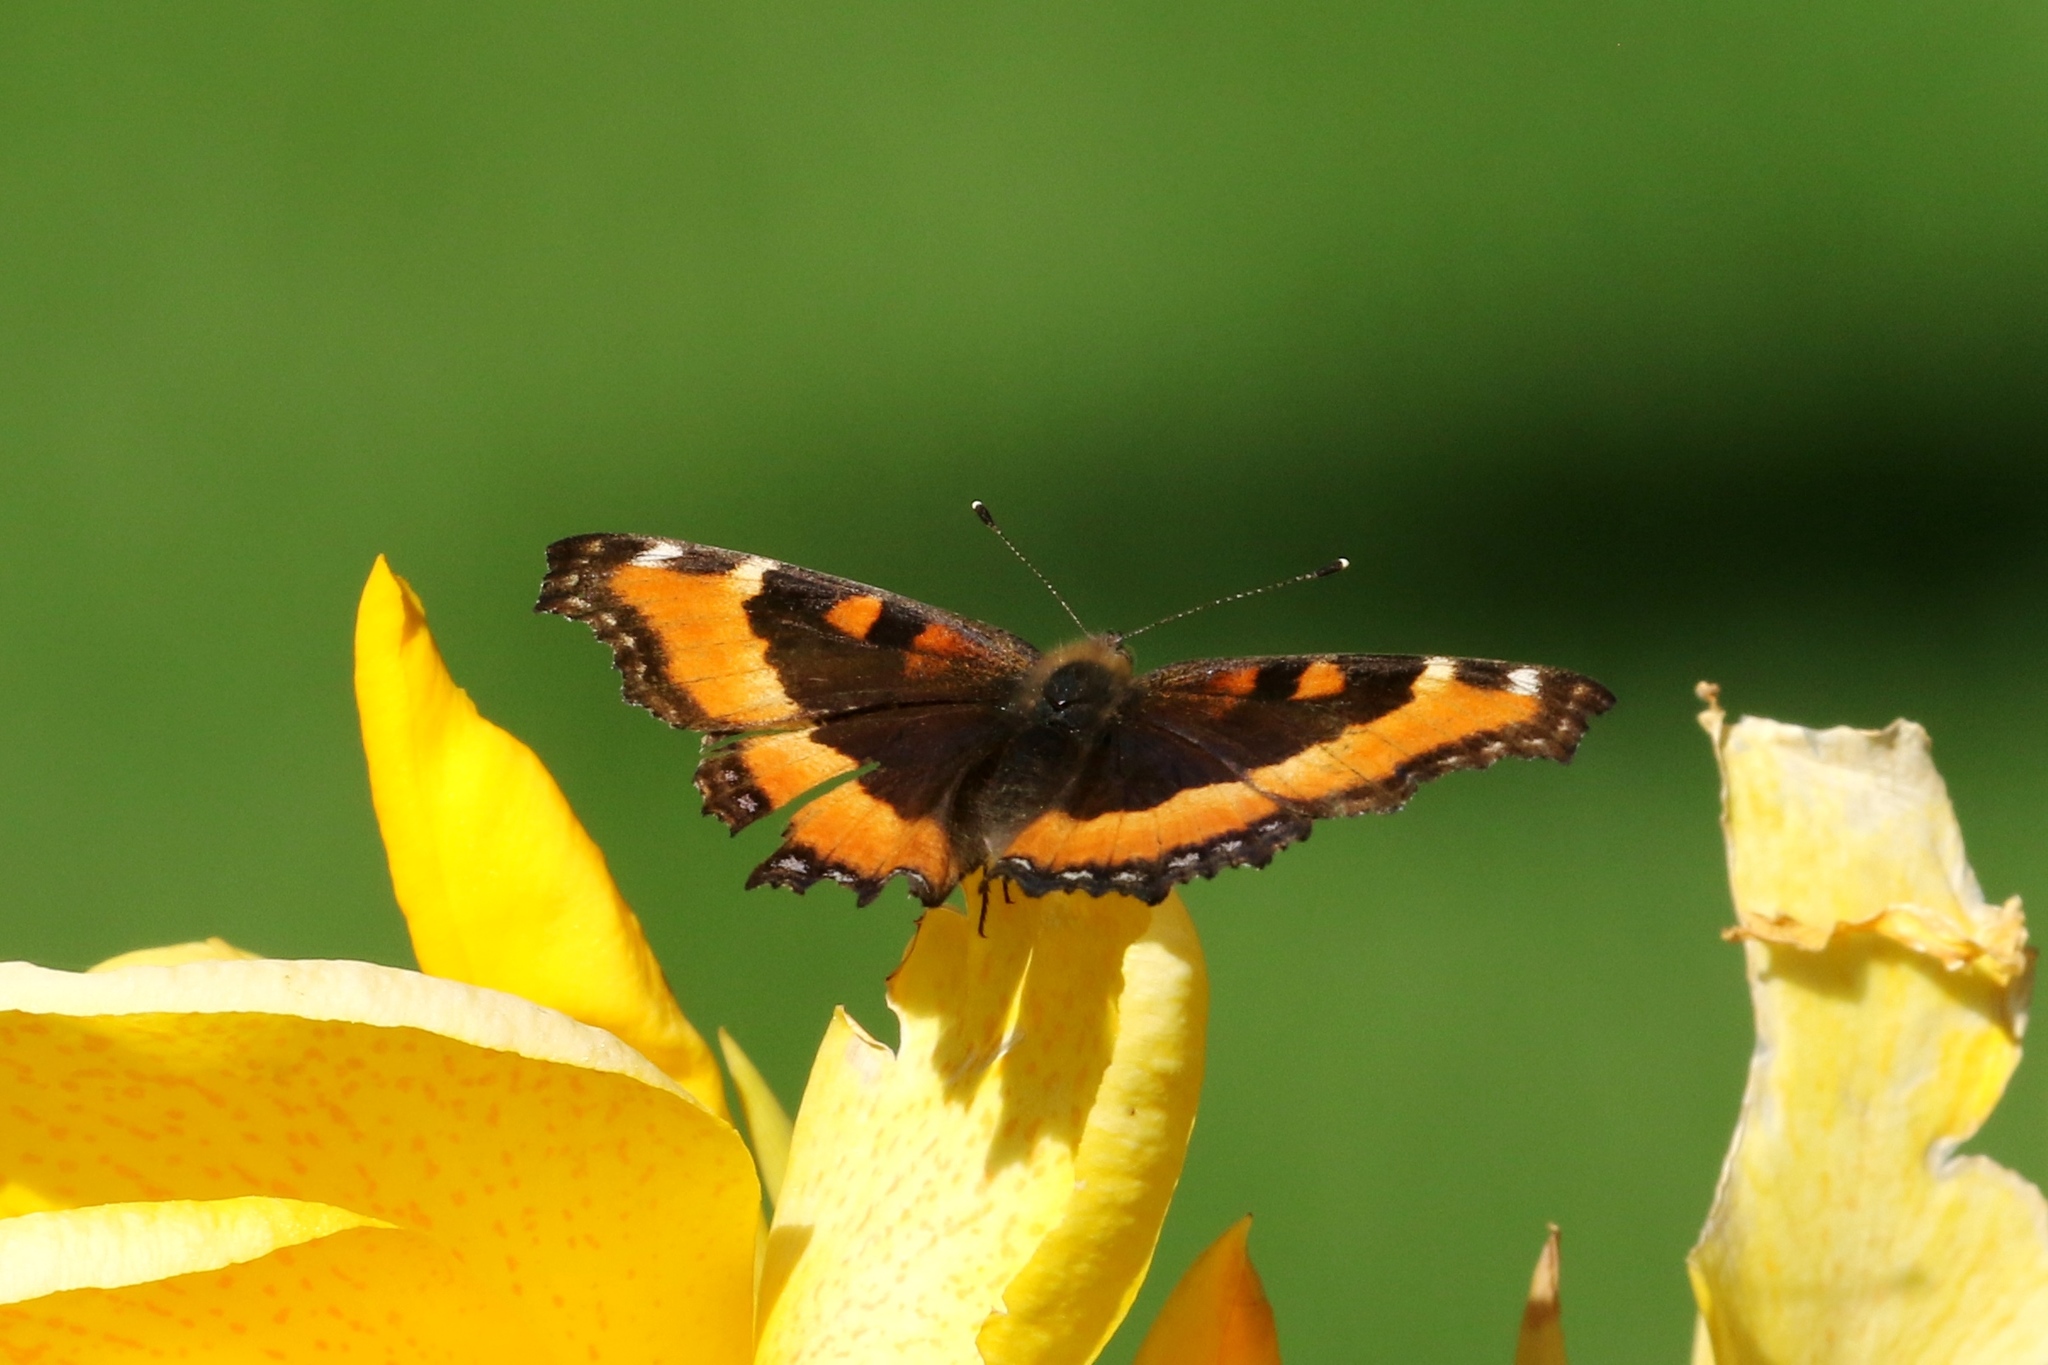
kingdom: Animalia
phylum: Arthropoda
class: Insecta
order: Lepidoptera
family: Nymphalidae
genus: Aglais
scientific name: Aglais milberti
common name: Milbert's tortoiseshell
